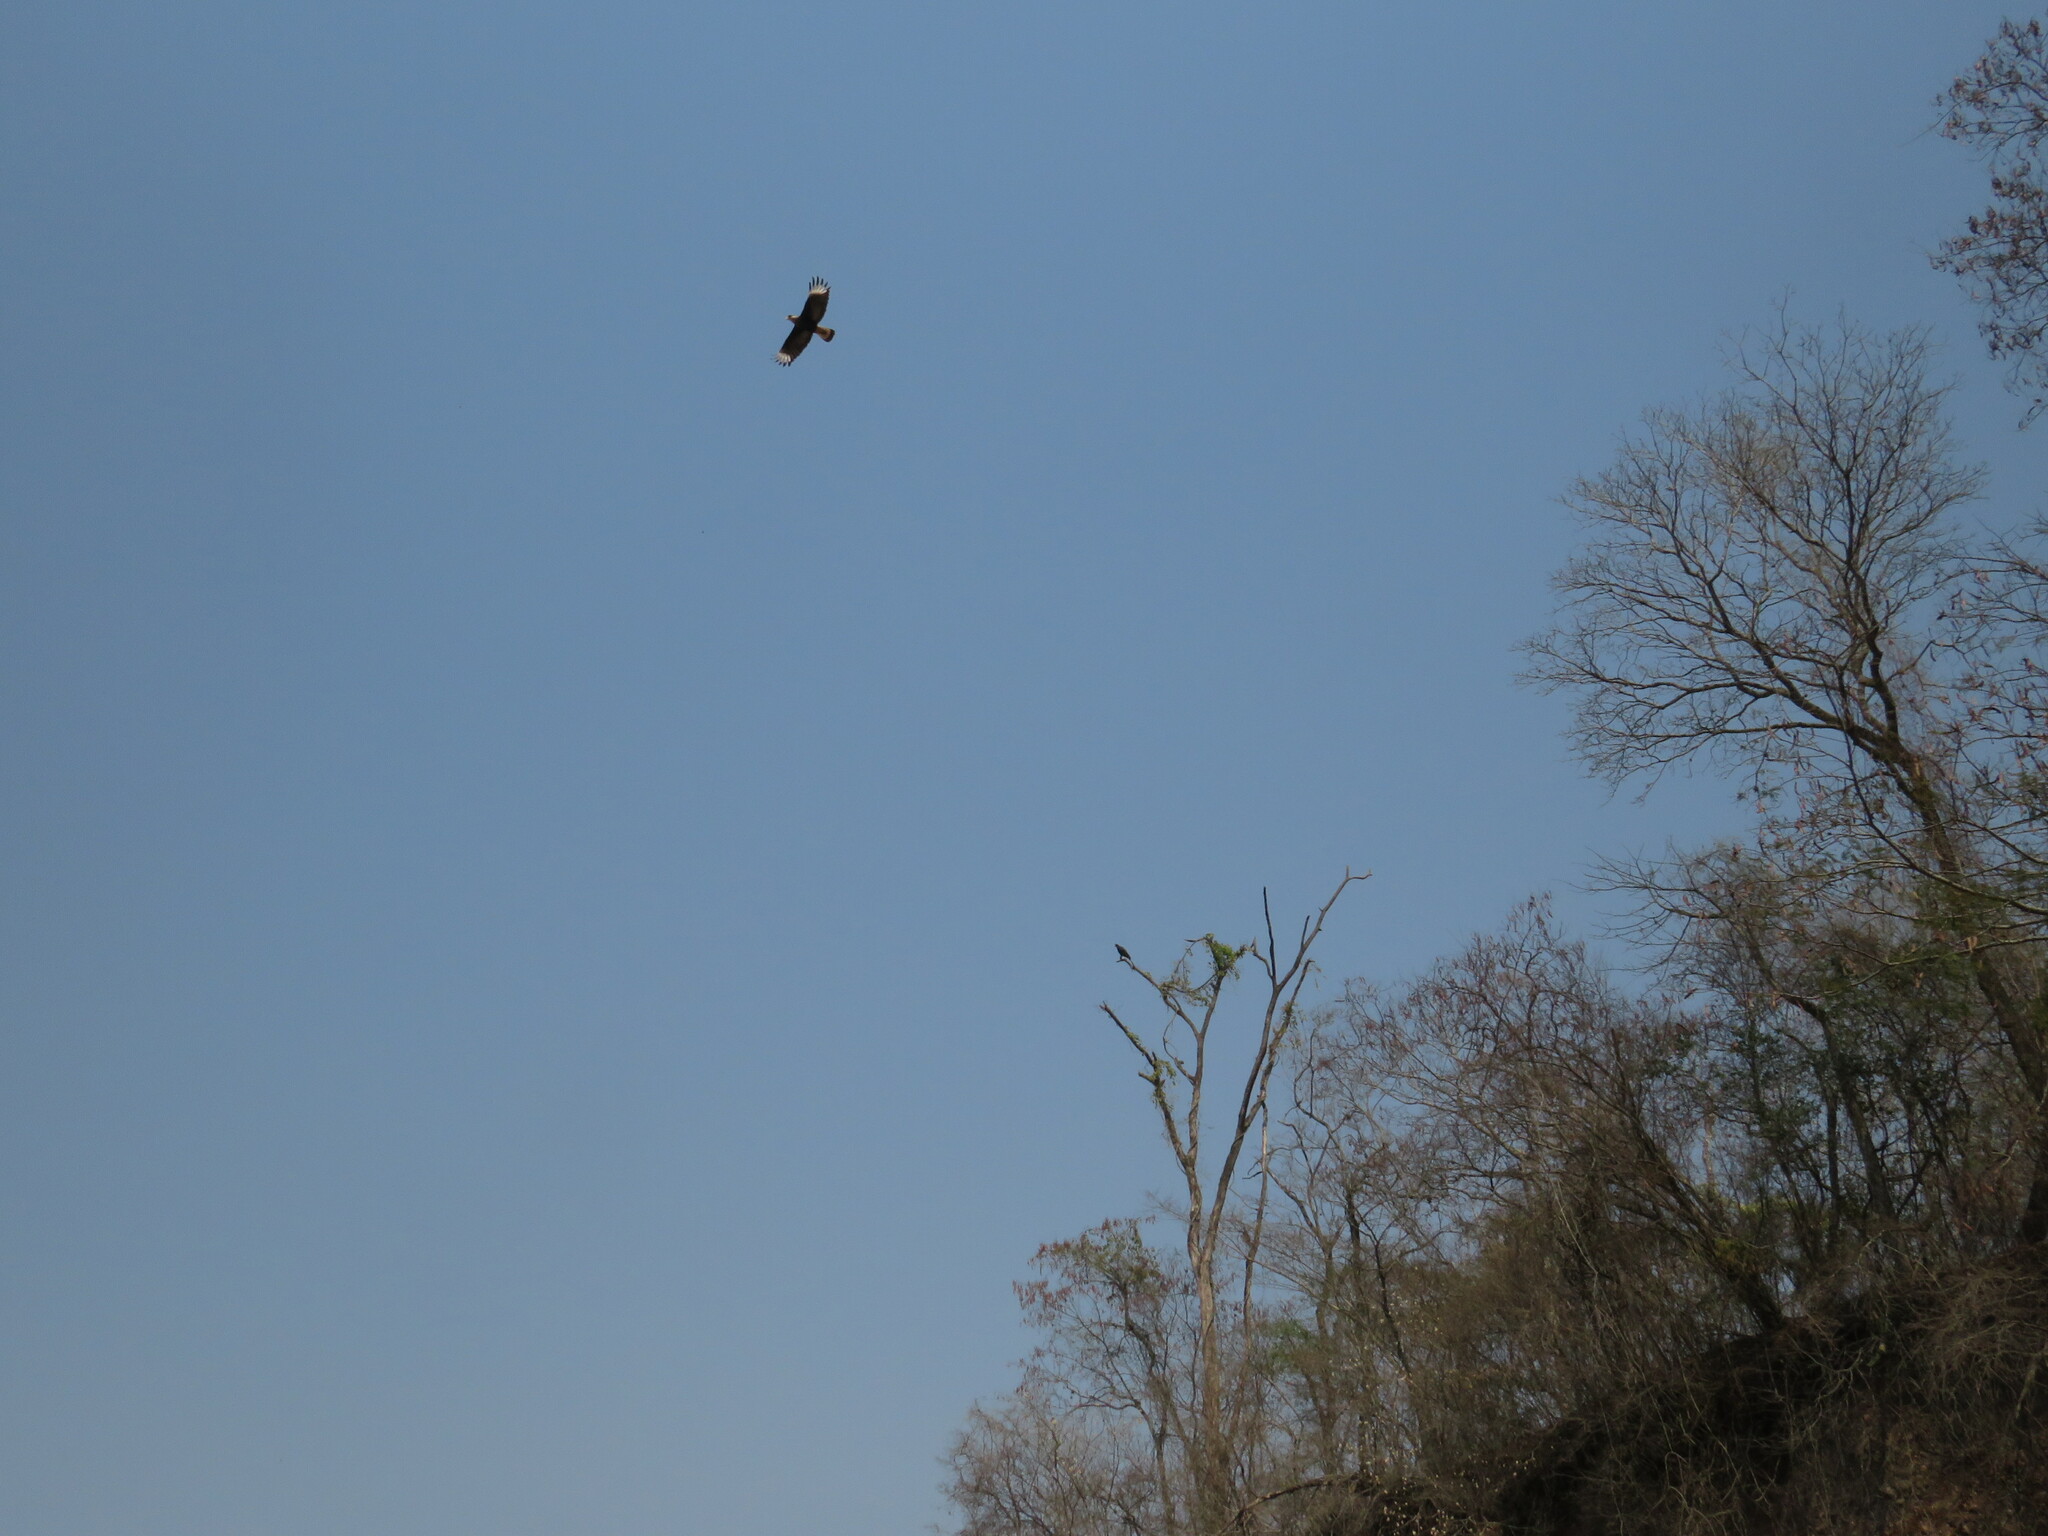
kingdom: Animalia
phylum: Chordata
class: Aves
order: Falconiformes
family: Falconidae
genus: Caracara
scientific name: Caracara plancus
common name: Southern caracara
